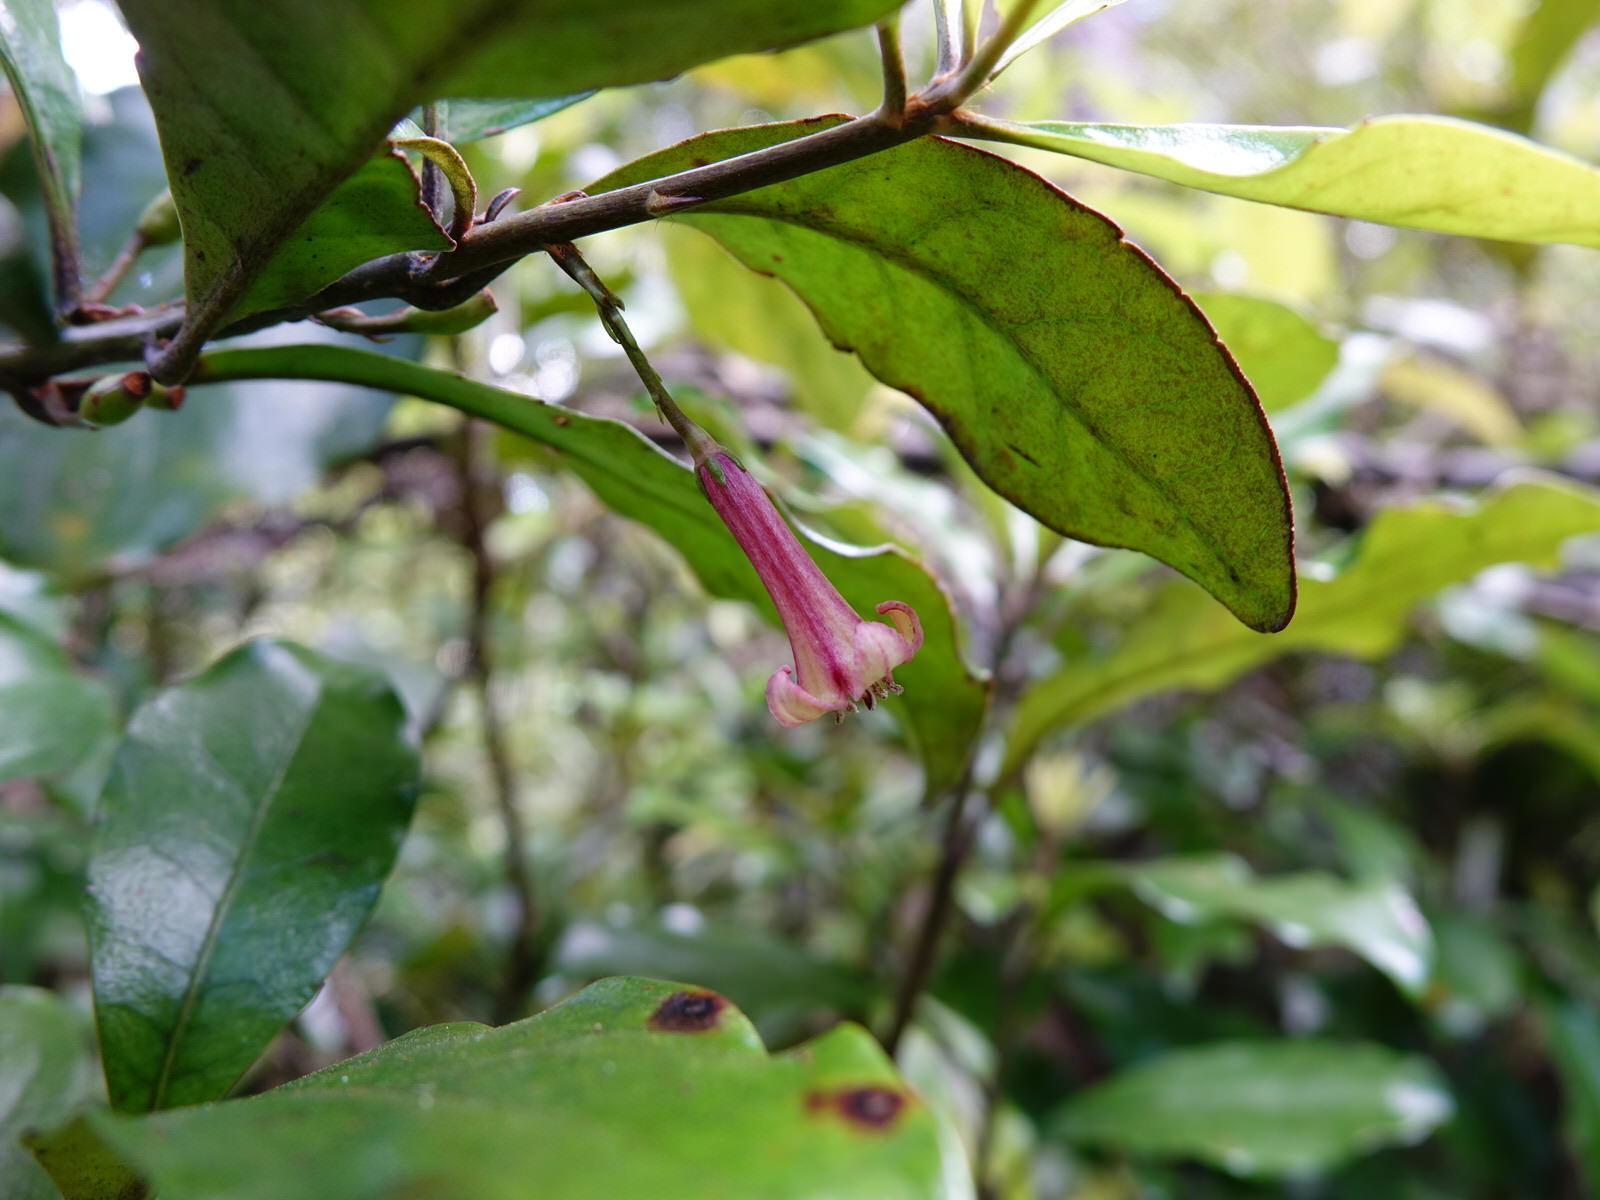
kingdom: Plantae
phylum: Tracheophyta
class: Magnoliopsida
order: Asterales
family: Alseuosmiaceae
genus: Alseuosmia
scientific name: Alseuosmia macrophylla
